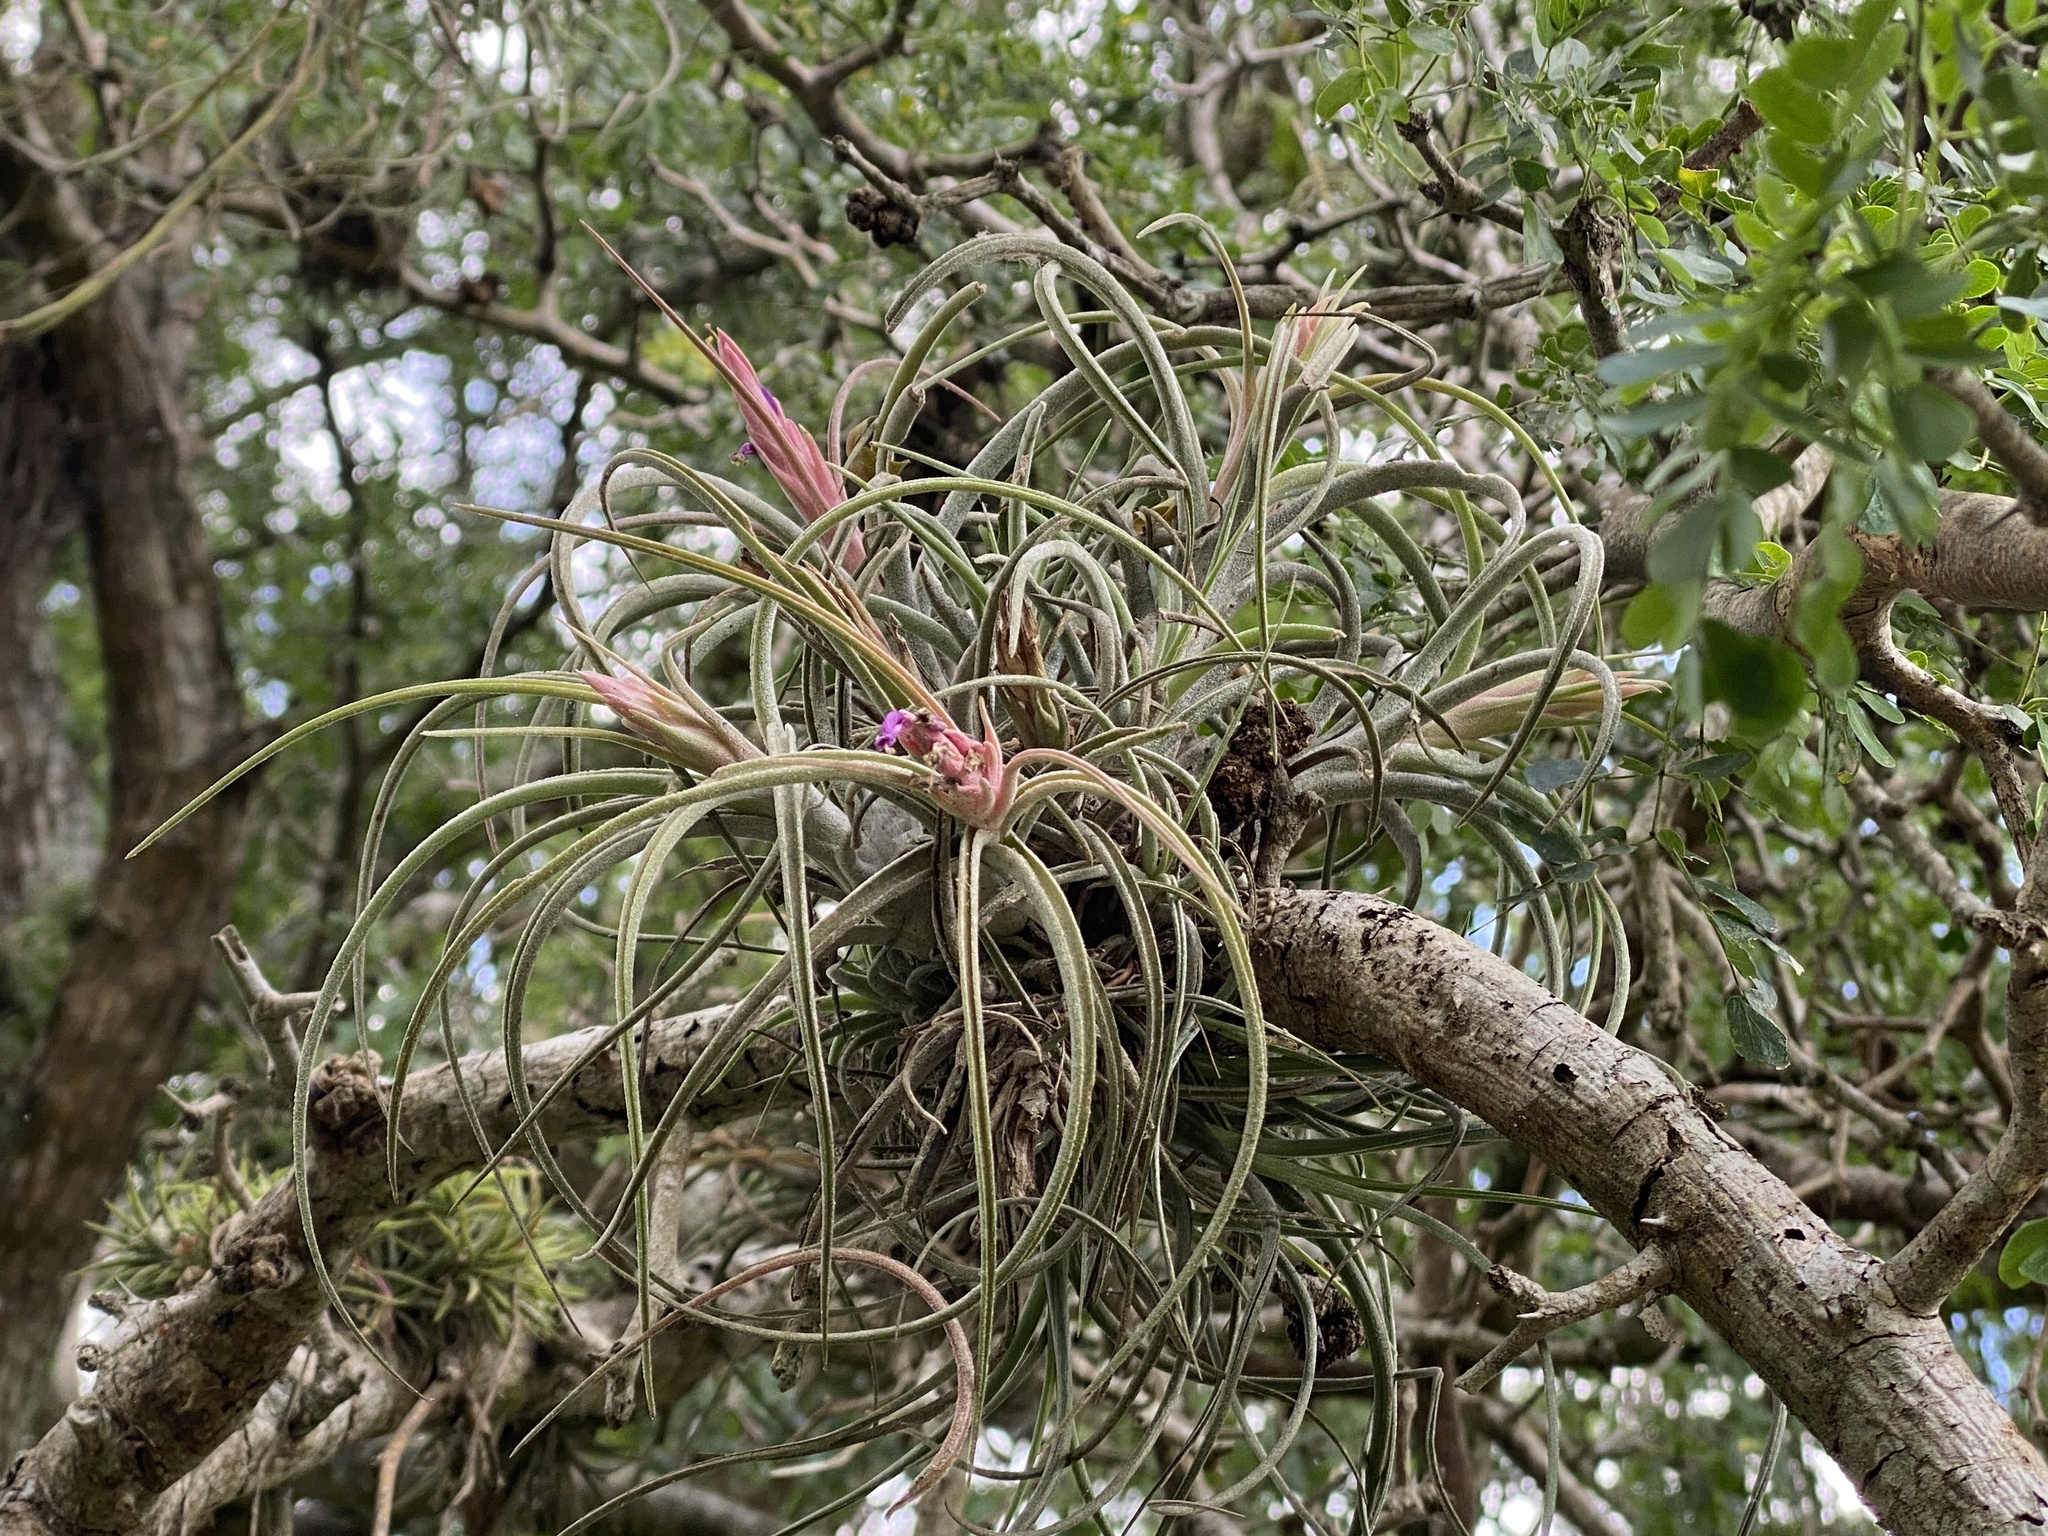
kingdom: Plantae
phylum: Tracheophyta
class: Liliopsida
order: Poales
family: Bromeliaceae
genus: Tillandsia
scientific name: Tillandsia baileyi
